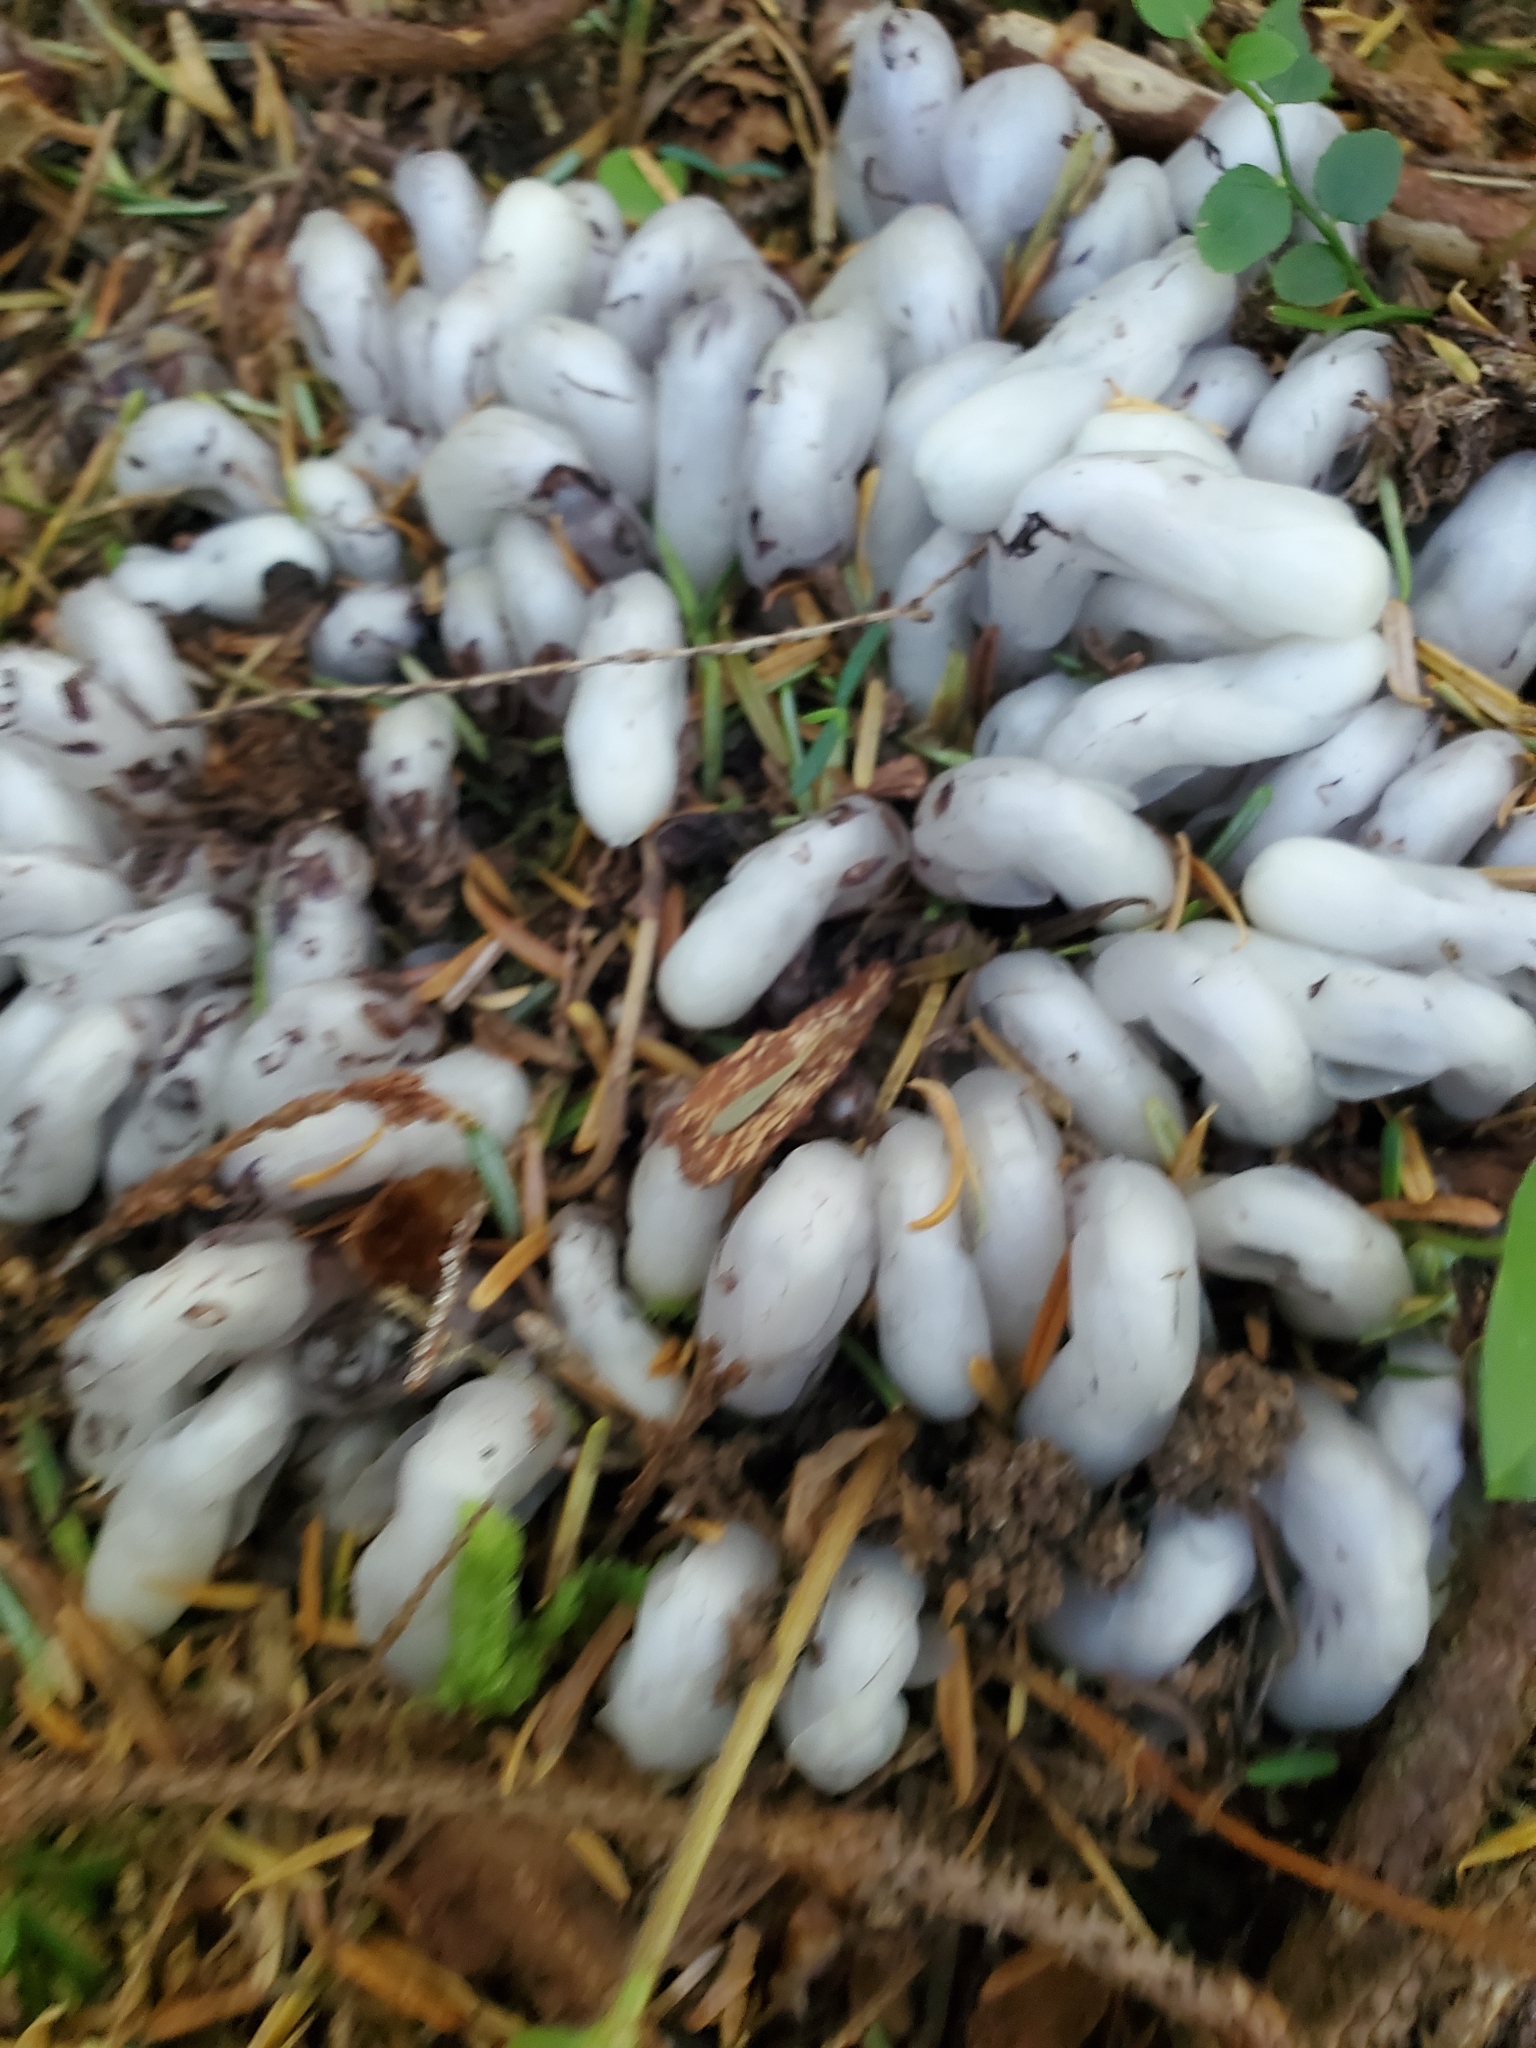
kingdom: Plantae
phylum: Tracheophyta
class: Magnoliopsida
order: Ericales
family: Ericaceae
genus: Monotropa
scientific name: Monotropa uniflora
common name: Convulsion root
